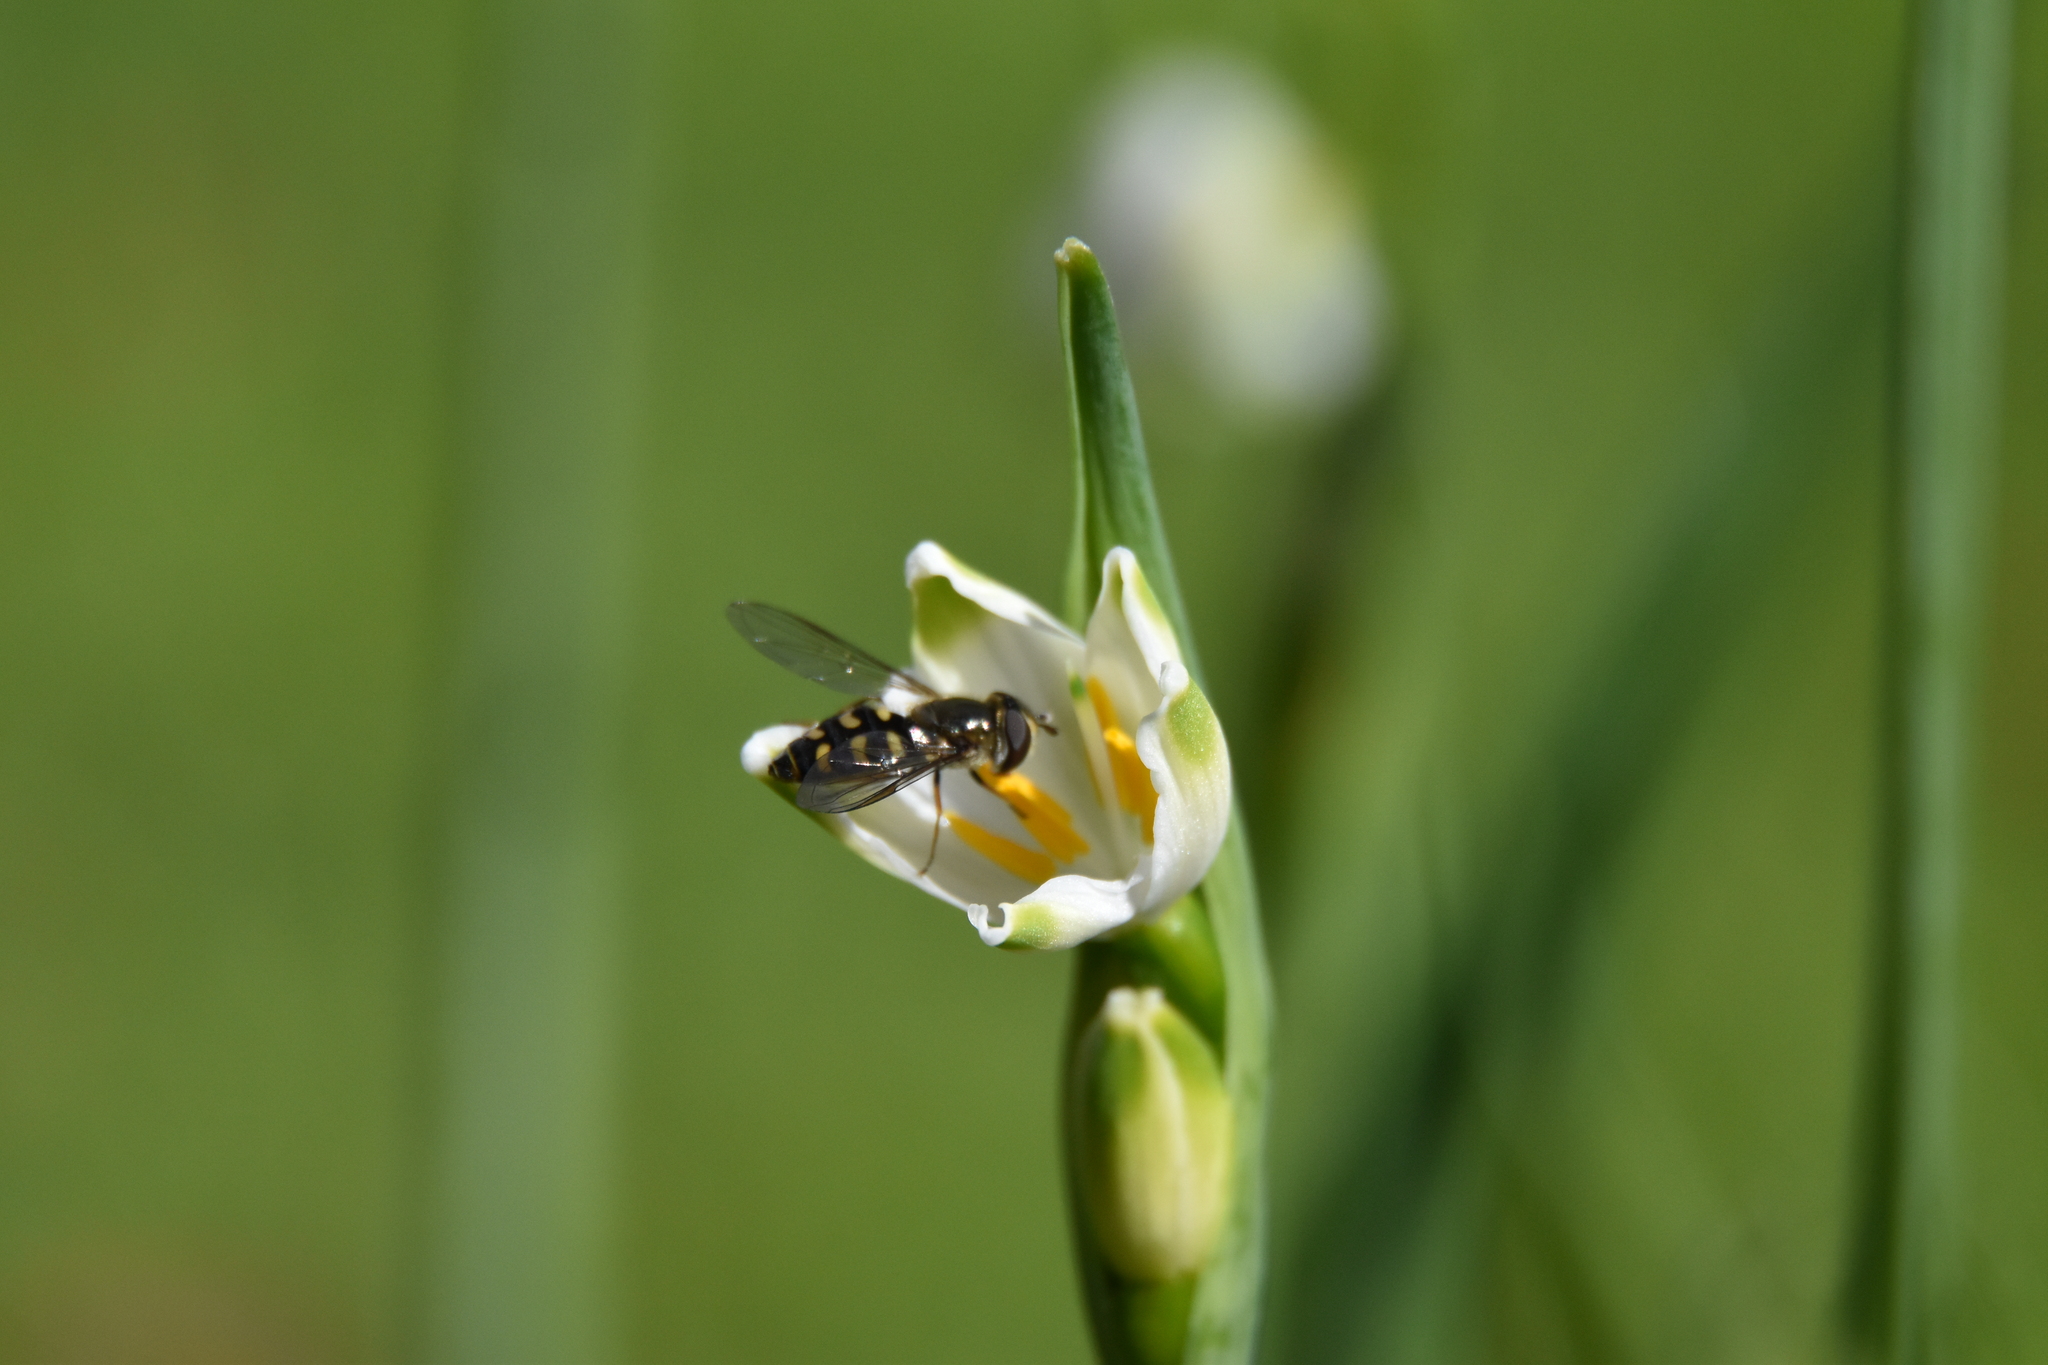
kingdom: Animalia
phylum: Arthropoda
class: Insecta
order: Diptera
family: Syrphidae
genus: Eupeodes
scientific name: Eupeodes
